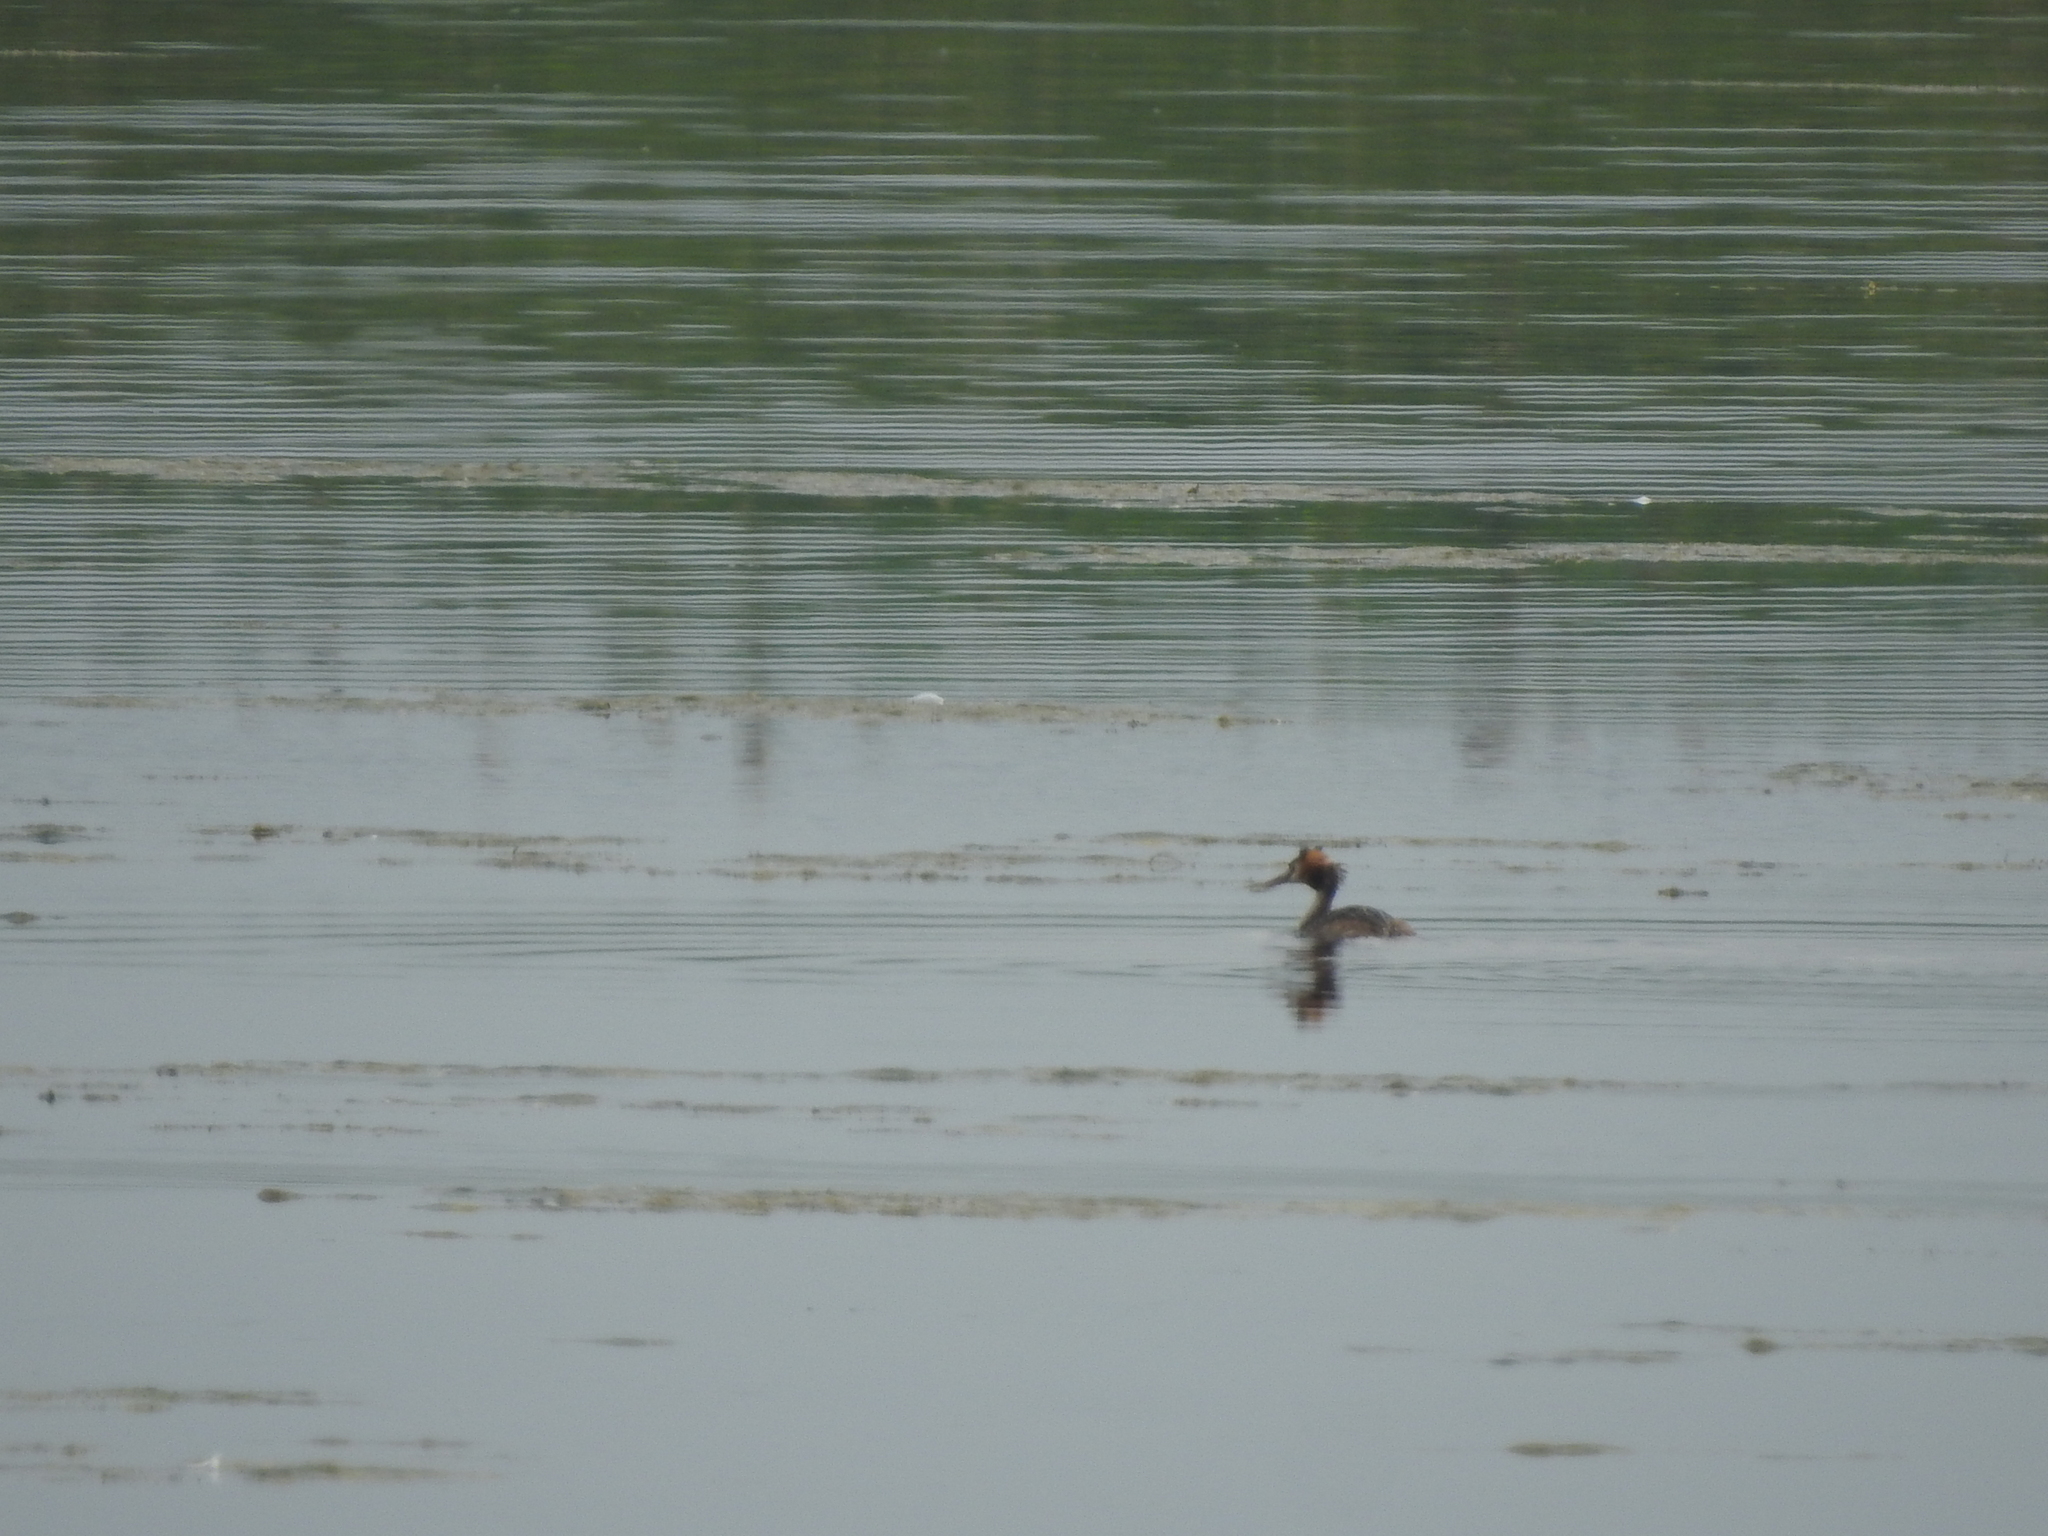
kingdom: Animalia
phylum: Chordata
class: Aves
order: Podicipediformes
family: Podicipedidae
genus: Podiceps
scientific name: Podiceps cristatus
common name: Great crested grebe
